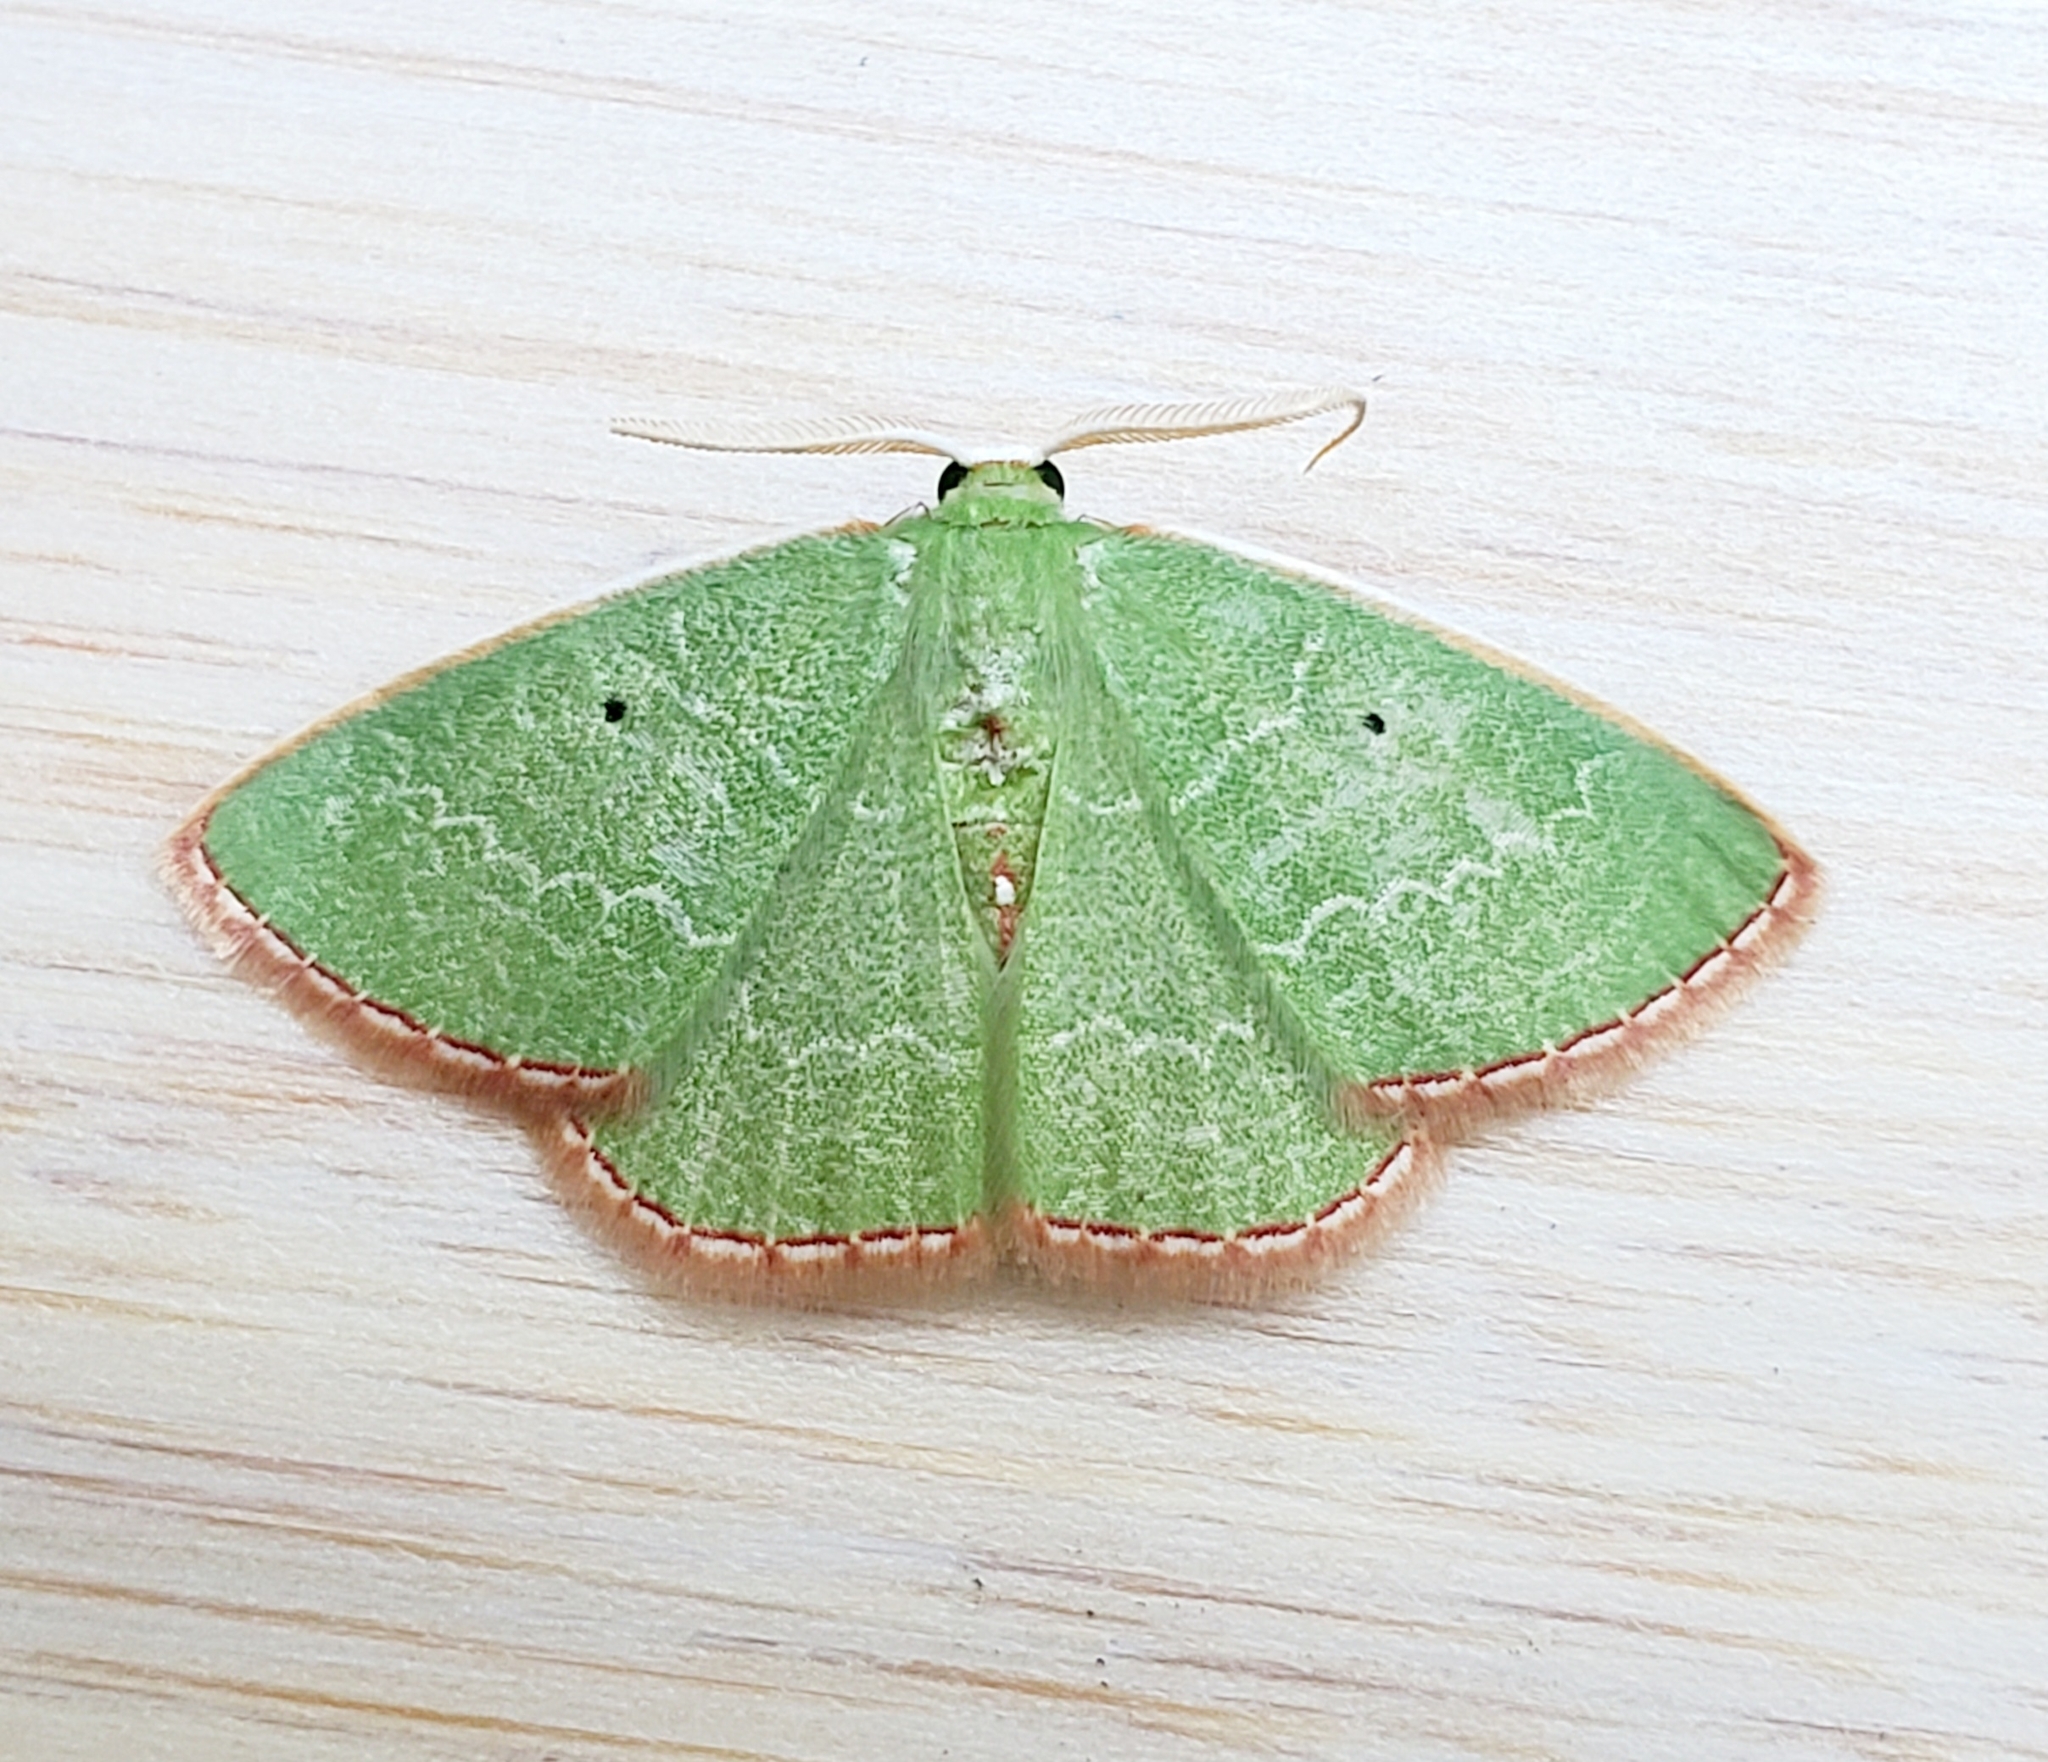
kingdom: Animalia
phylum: Arthropoda
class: Insecta
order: Lepidoptera
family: Geometridae
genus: Nemoria
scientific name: Nemoria catachloa
